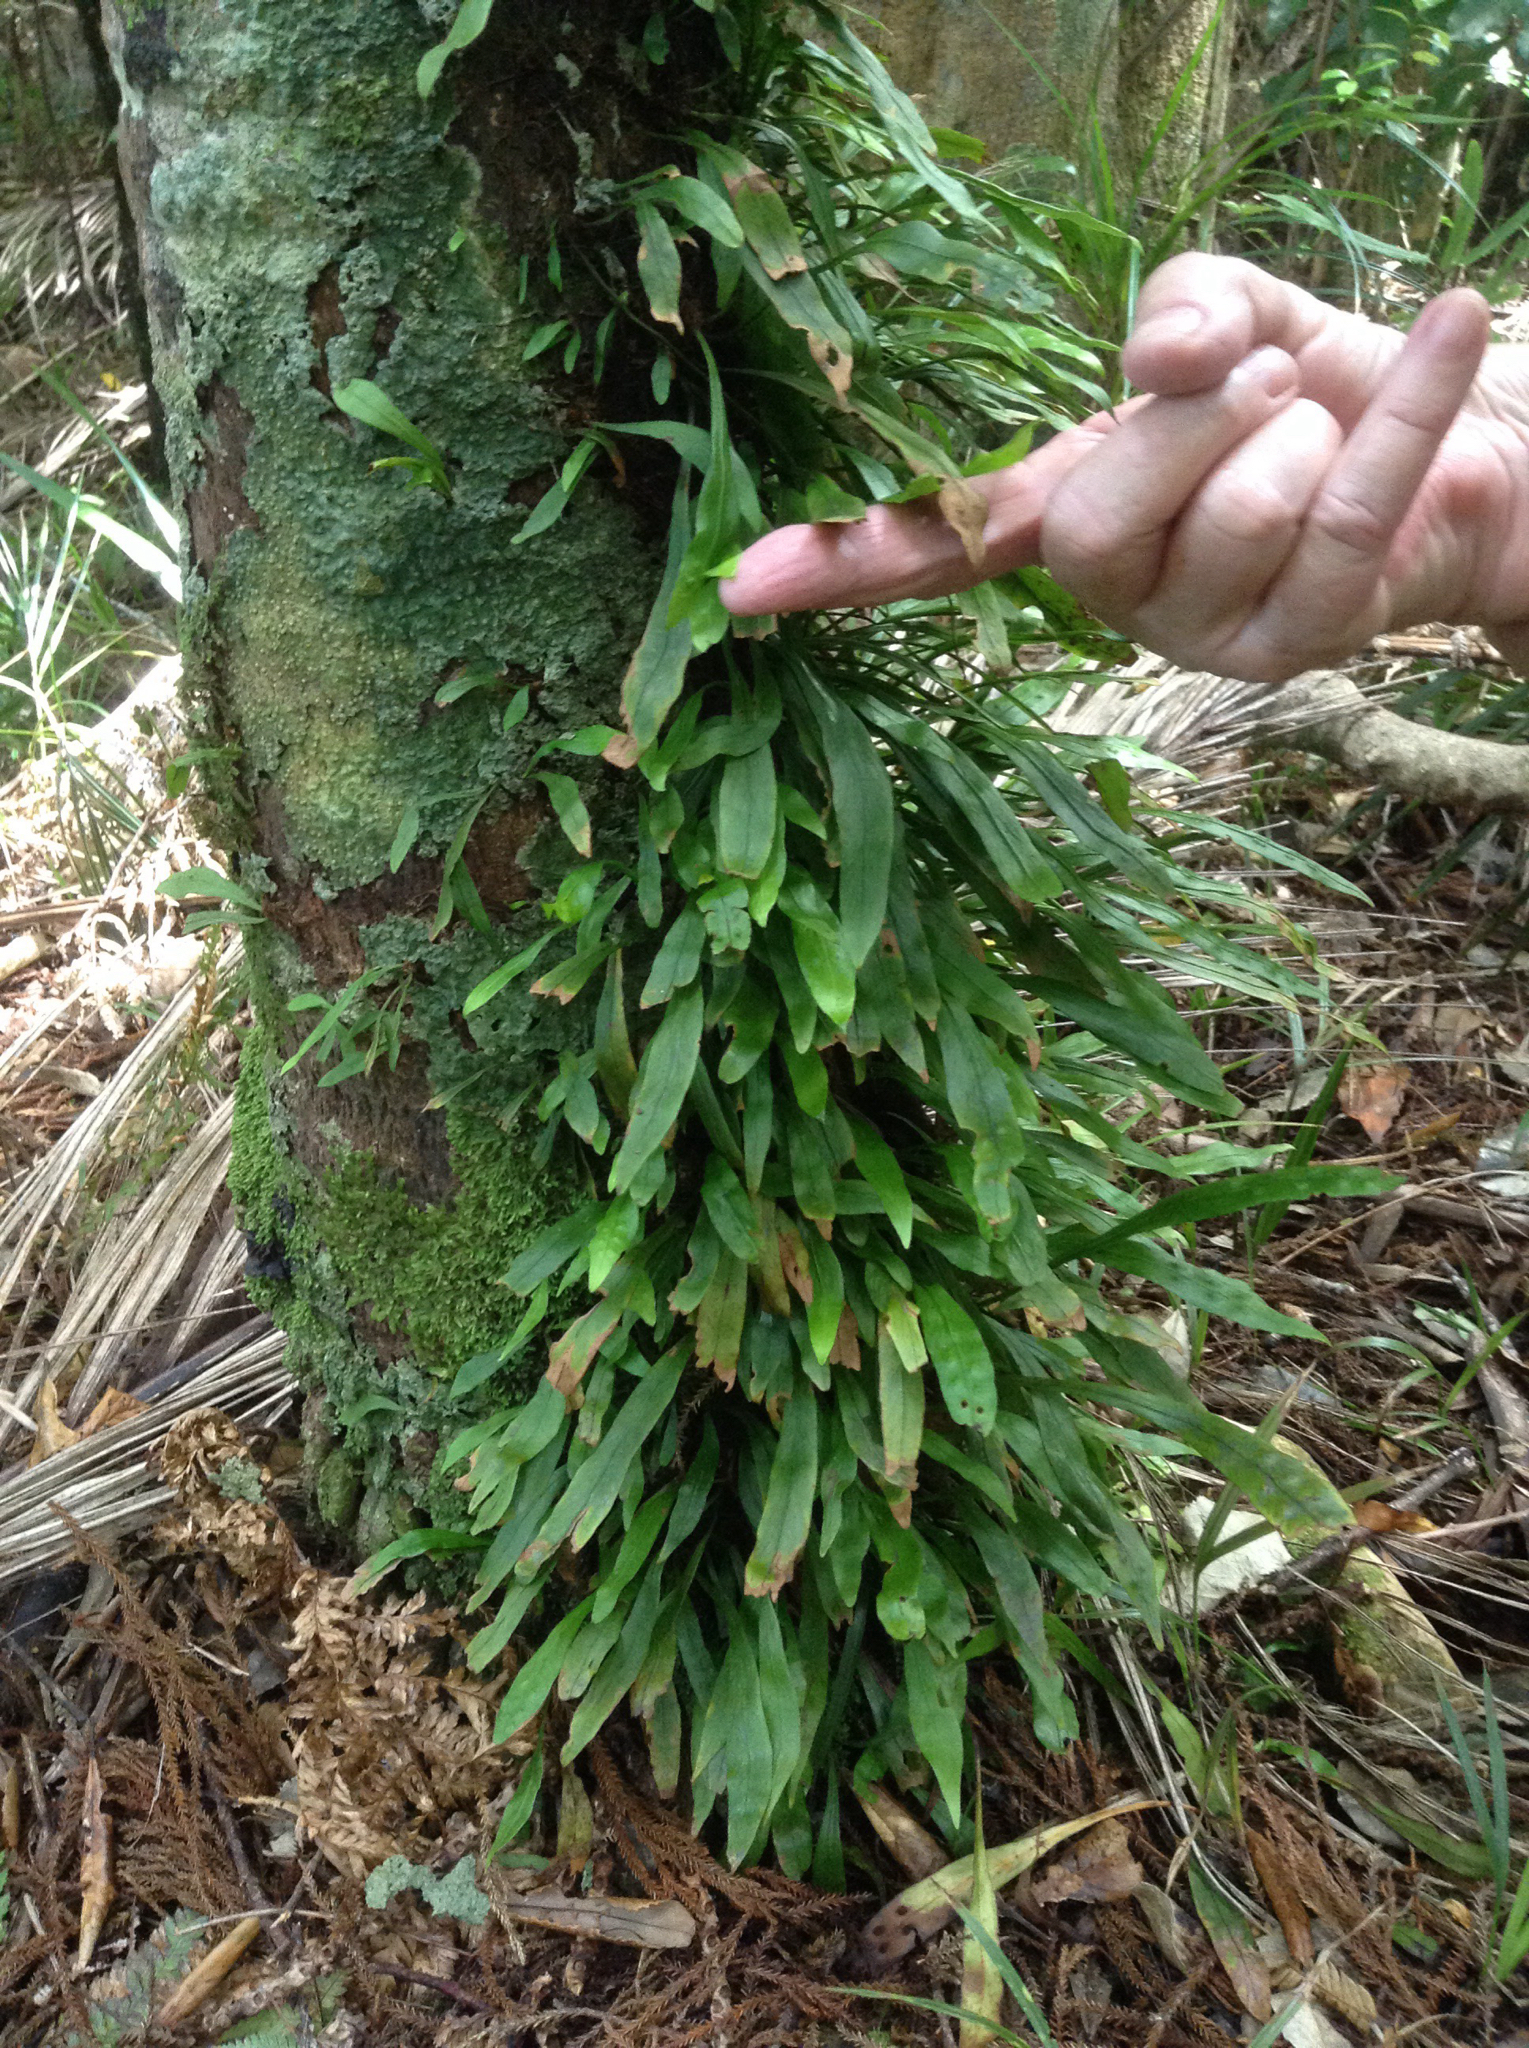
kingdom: Plantae
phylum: Tracheophyta
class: Polypodiopsida
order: Polypodiales
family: Polypodiaceae
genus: Loxogramme
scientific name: Loxogramme dictyopteris
